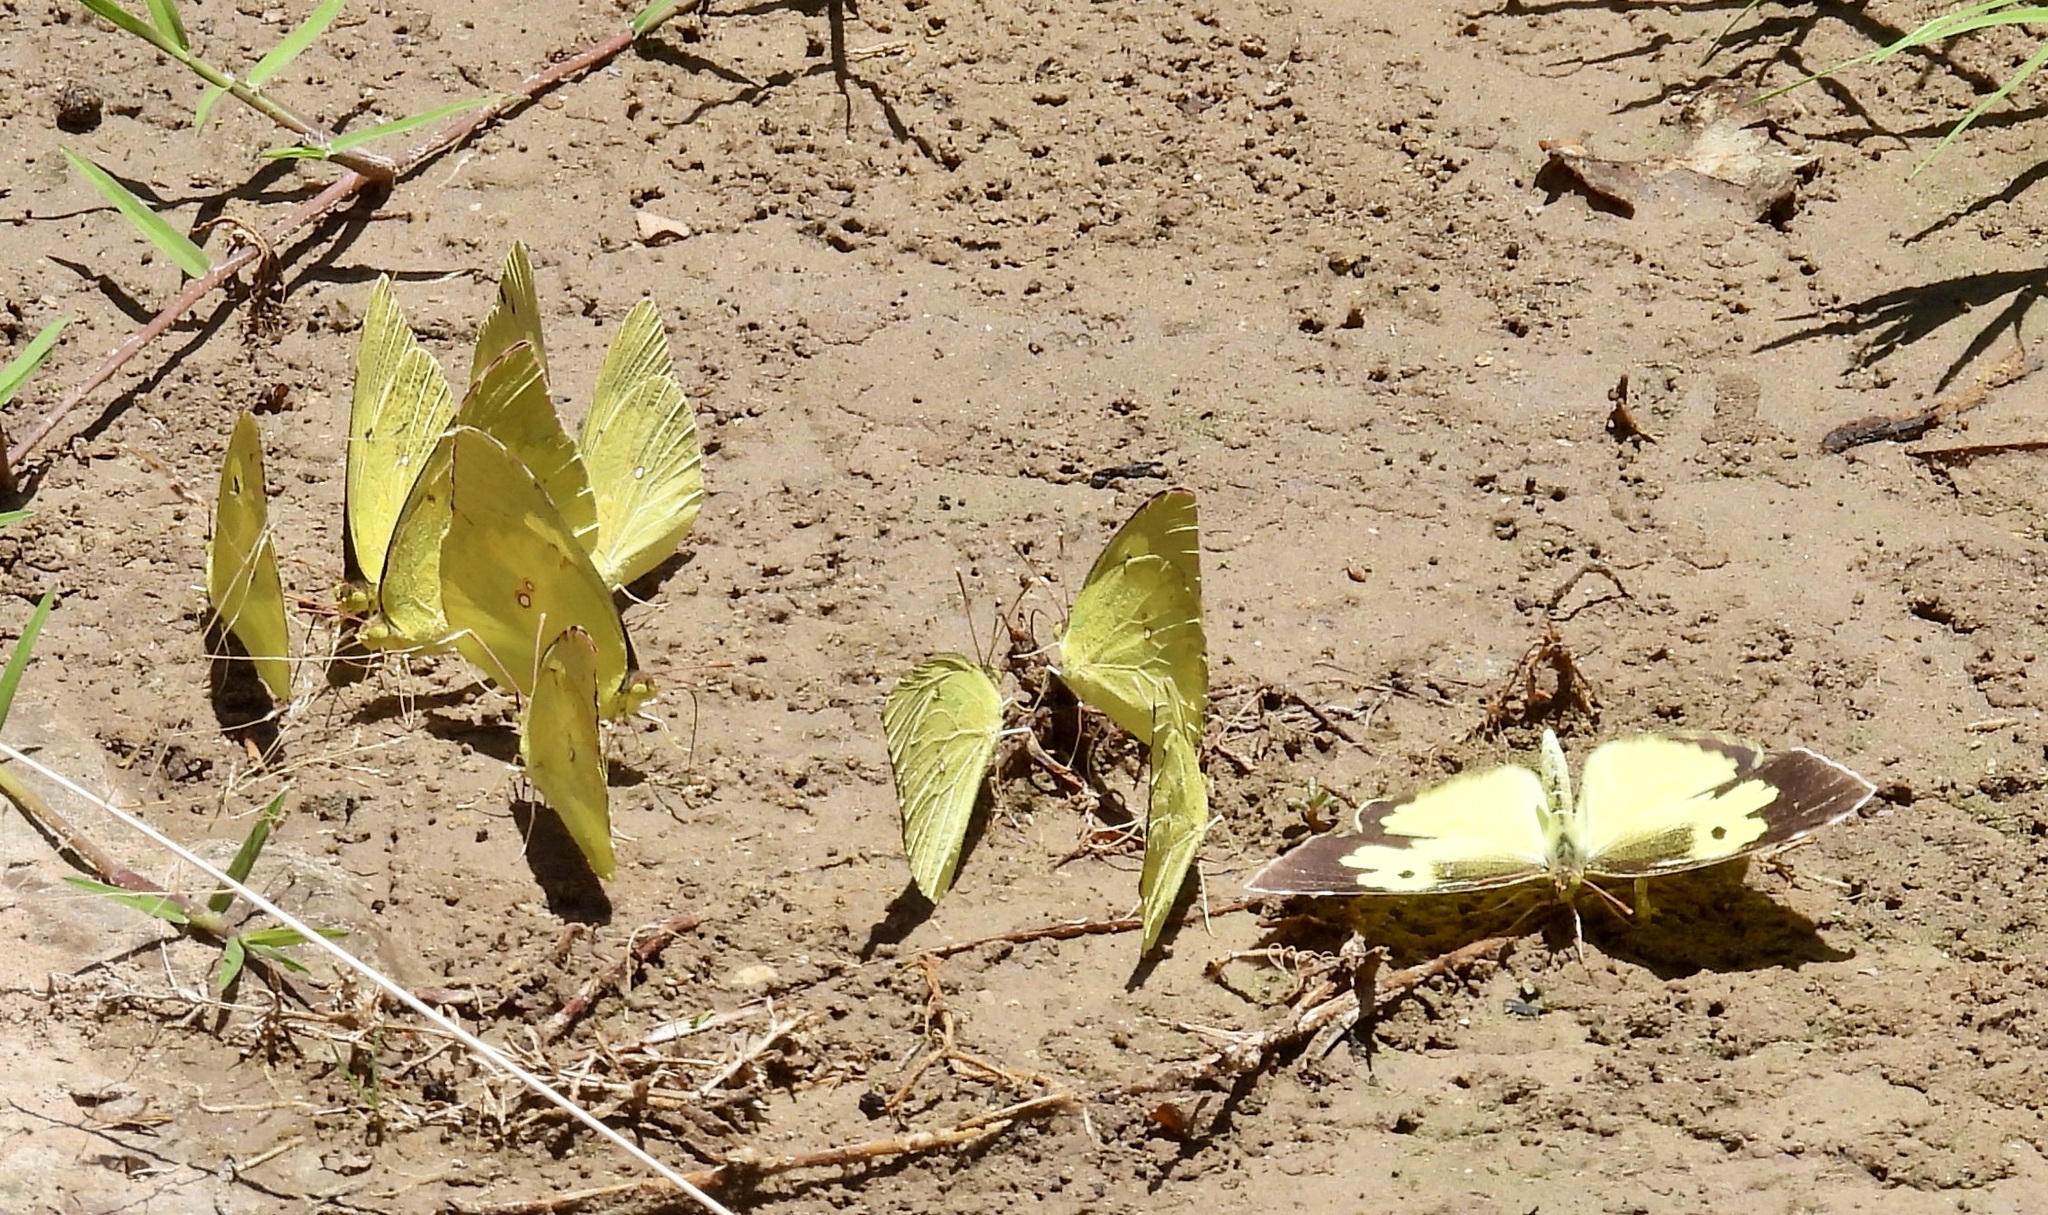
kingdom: Animalia
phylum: Arthropoda
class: Insecta
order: Lepidoptera
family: Pieridae
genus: Zerene
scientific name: Zerene cesonia
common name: Southern dogface
